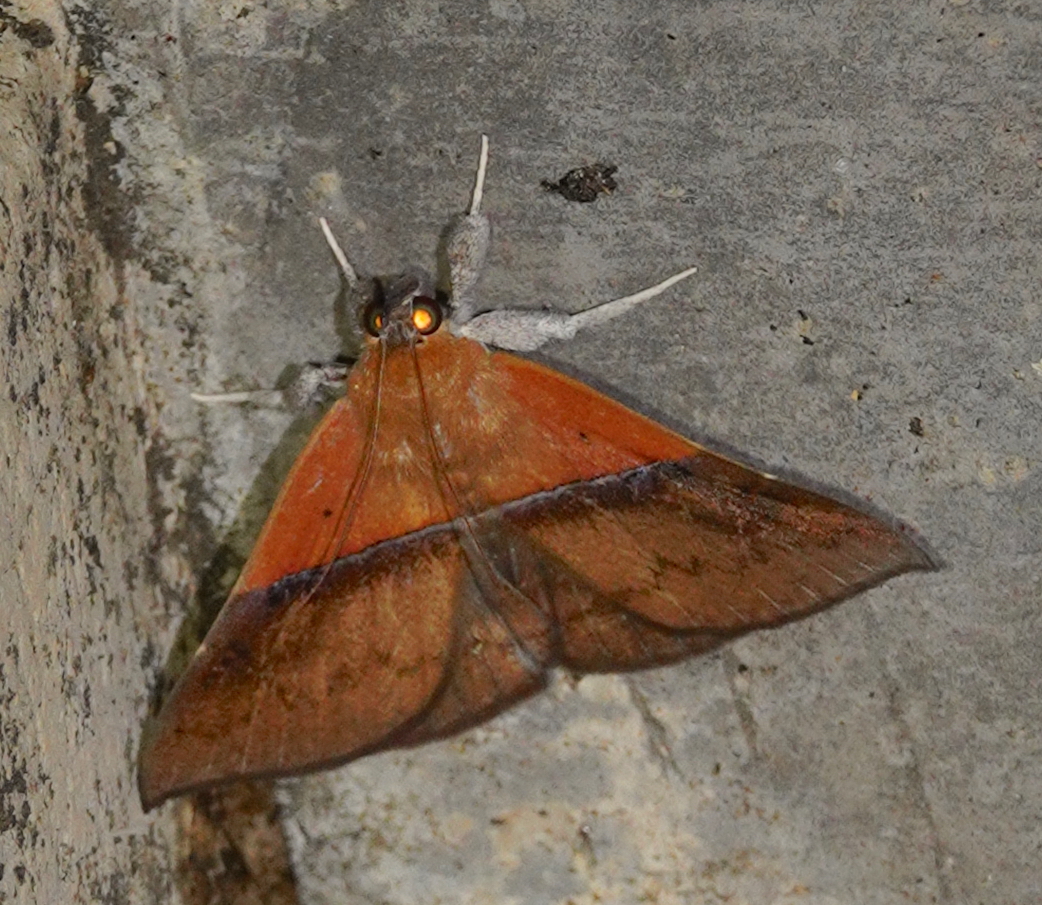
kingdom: Animalia
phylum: Arthropoda
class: Insecta
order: Lepidoptera
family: Erebidae
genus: Sympis
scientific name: Sympis rufibasis
